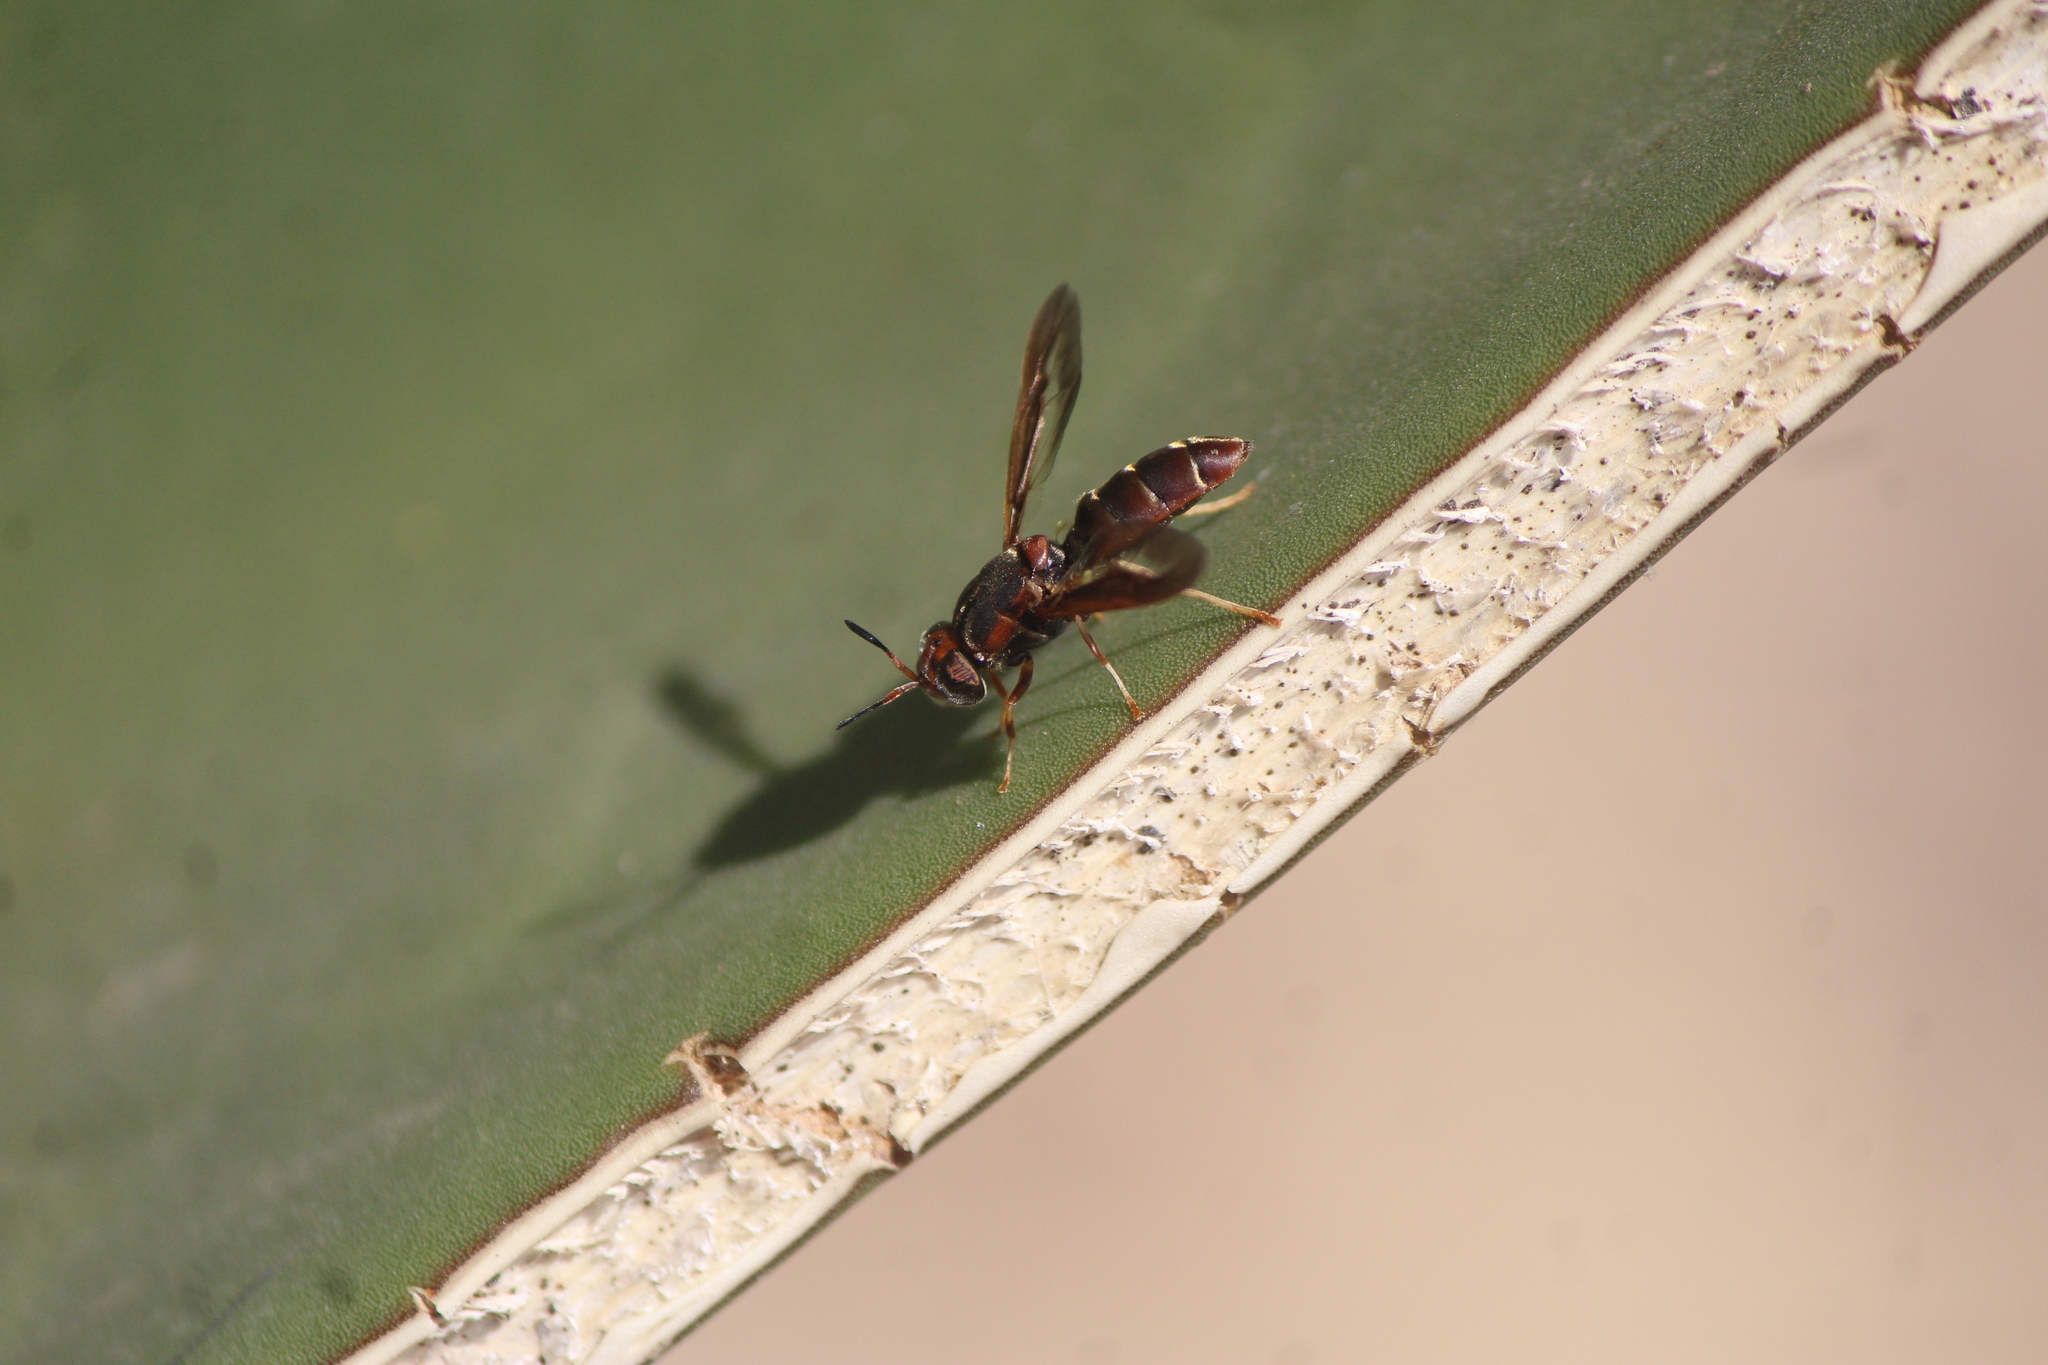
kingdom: Animalia
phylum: Arthropoda
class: Insecta
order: Diptera
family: Stratiomyidae
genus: Hermetia
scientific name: Hermetia comstocki
